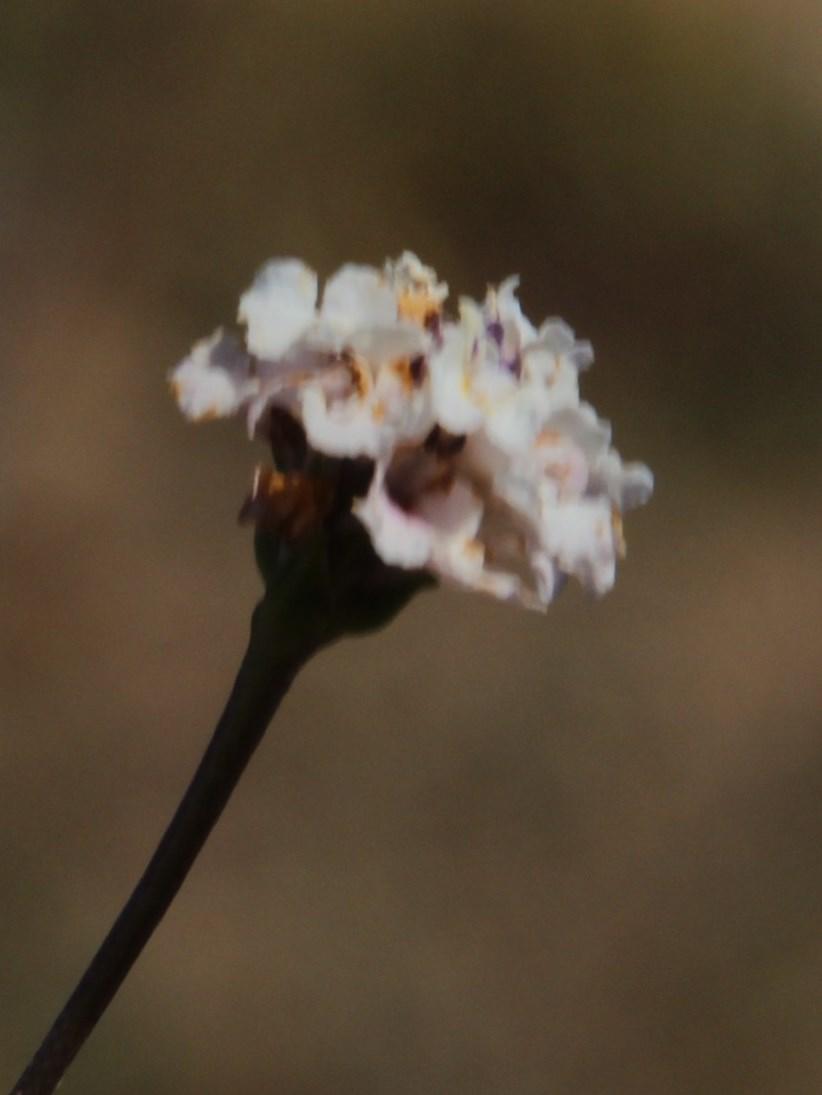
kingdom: Plantae
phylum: Tracheophyta
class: Magnoliopsida
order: Malpighiales
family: Elatinaceae
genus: Bergia
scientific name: Bergia glomerata
